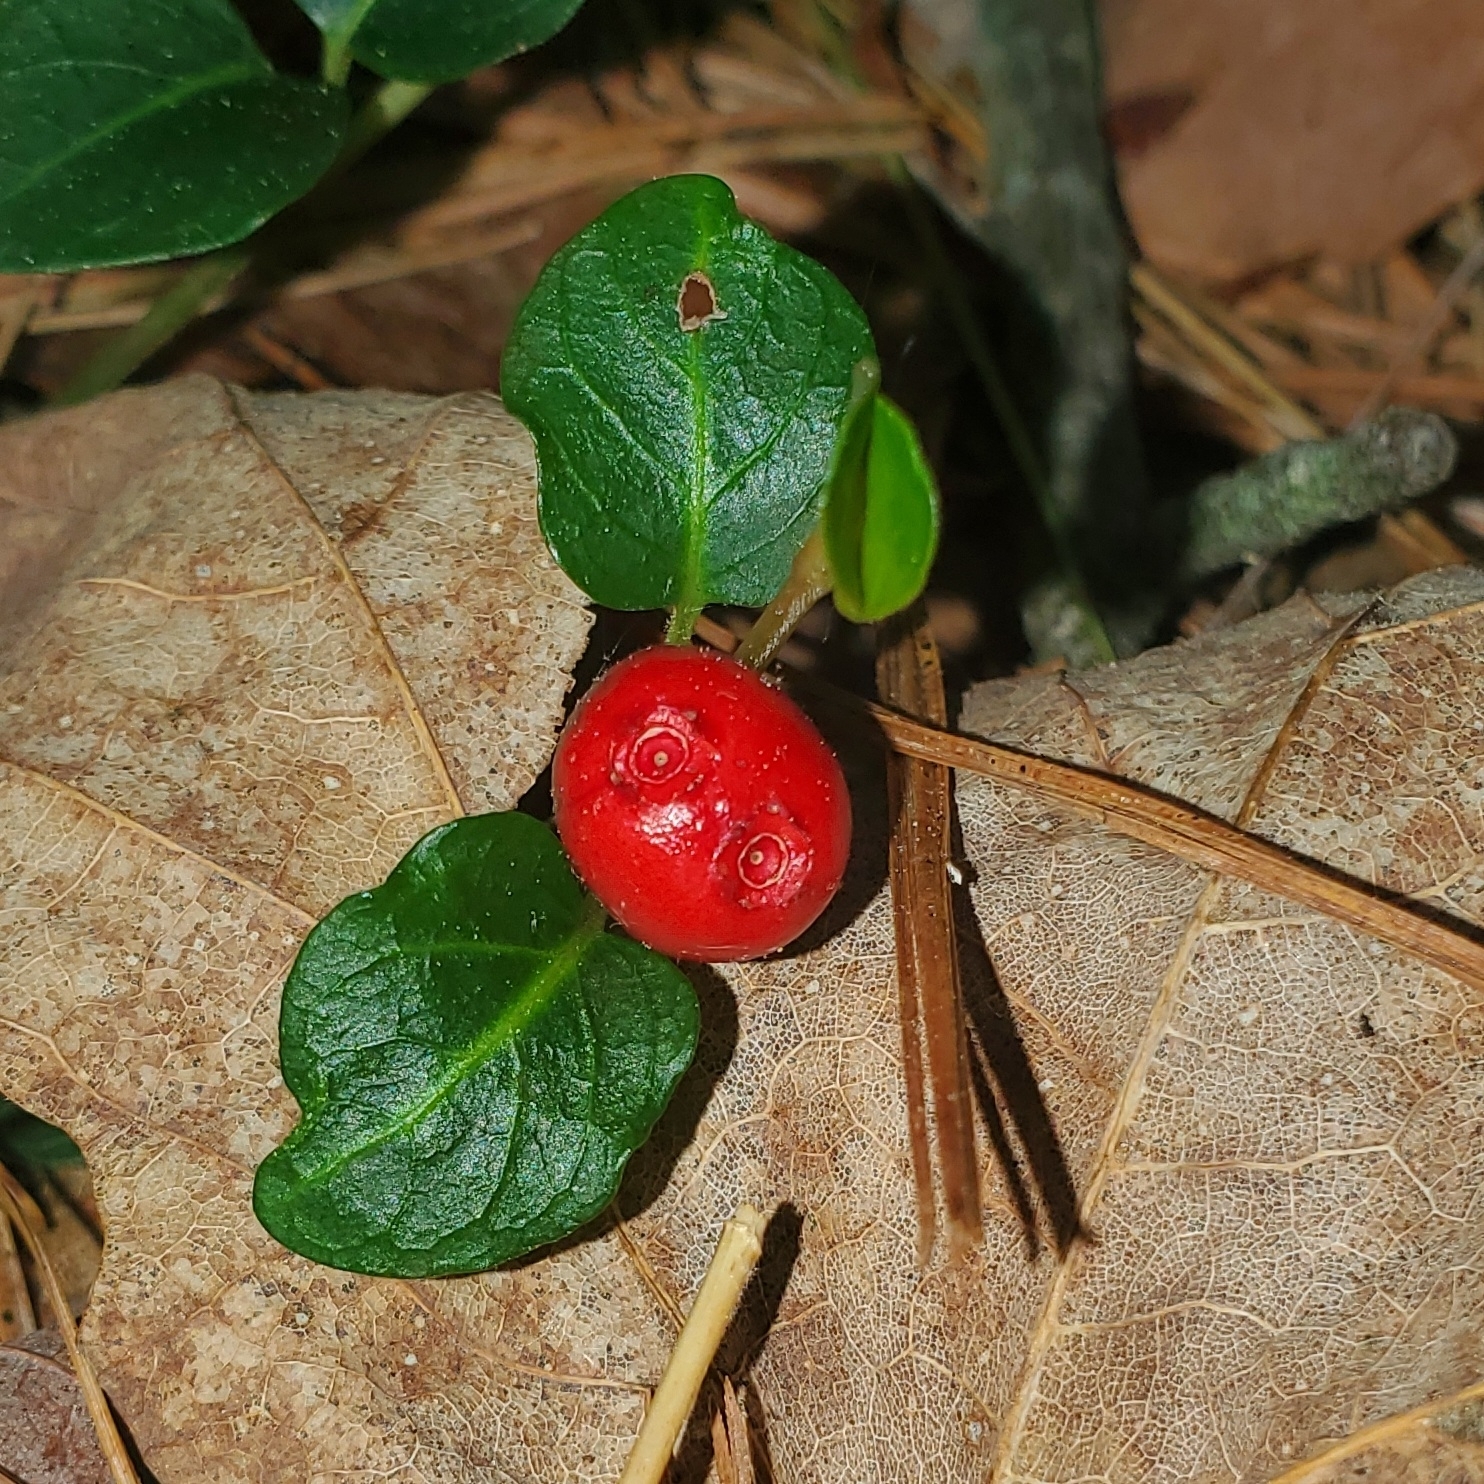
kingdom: Plantae
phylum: Tracheophyta
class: Magnoliopsida
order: Gentianales
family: Rubiaceae
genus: Mitchella
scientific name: Mitchella repens
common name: Partridge-berry
